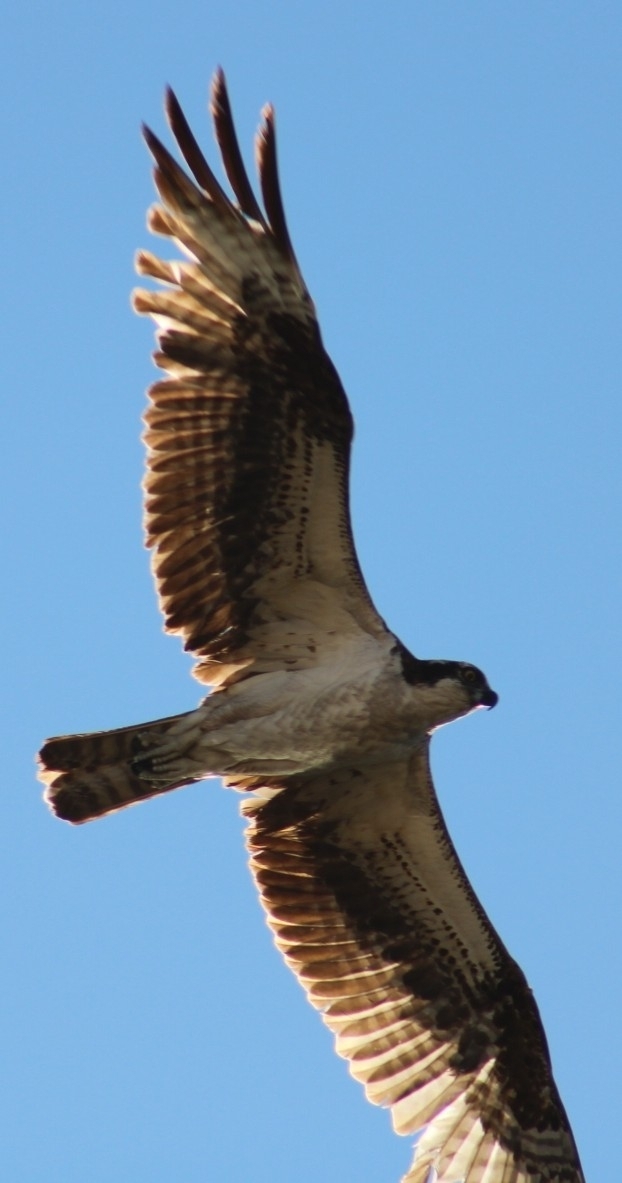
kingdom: Animalia
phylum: Chordata
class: Aves
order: Accipitriformes
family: Pandionidae
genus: Pandion
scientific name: Pandion haliaetus
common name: Osprey
